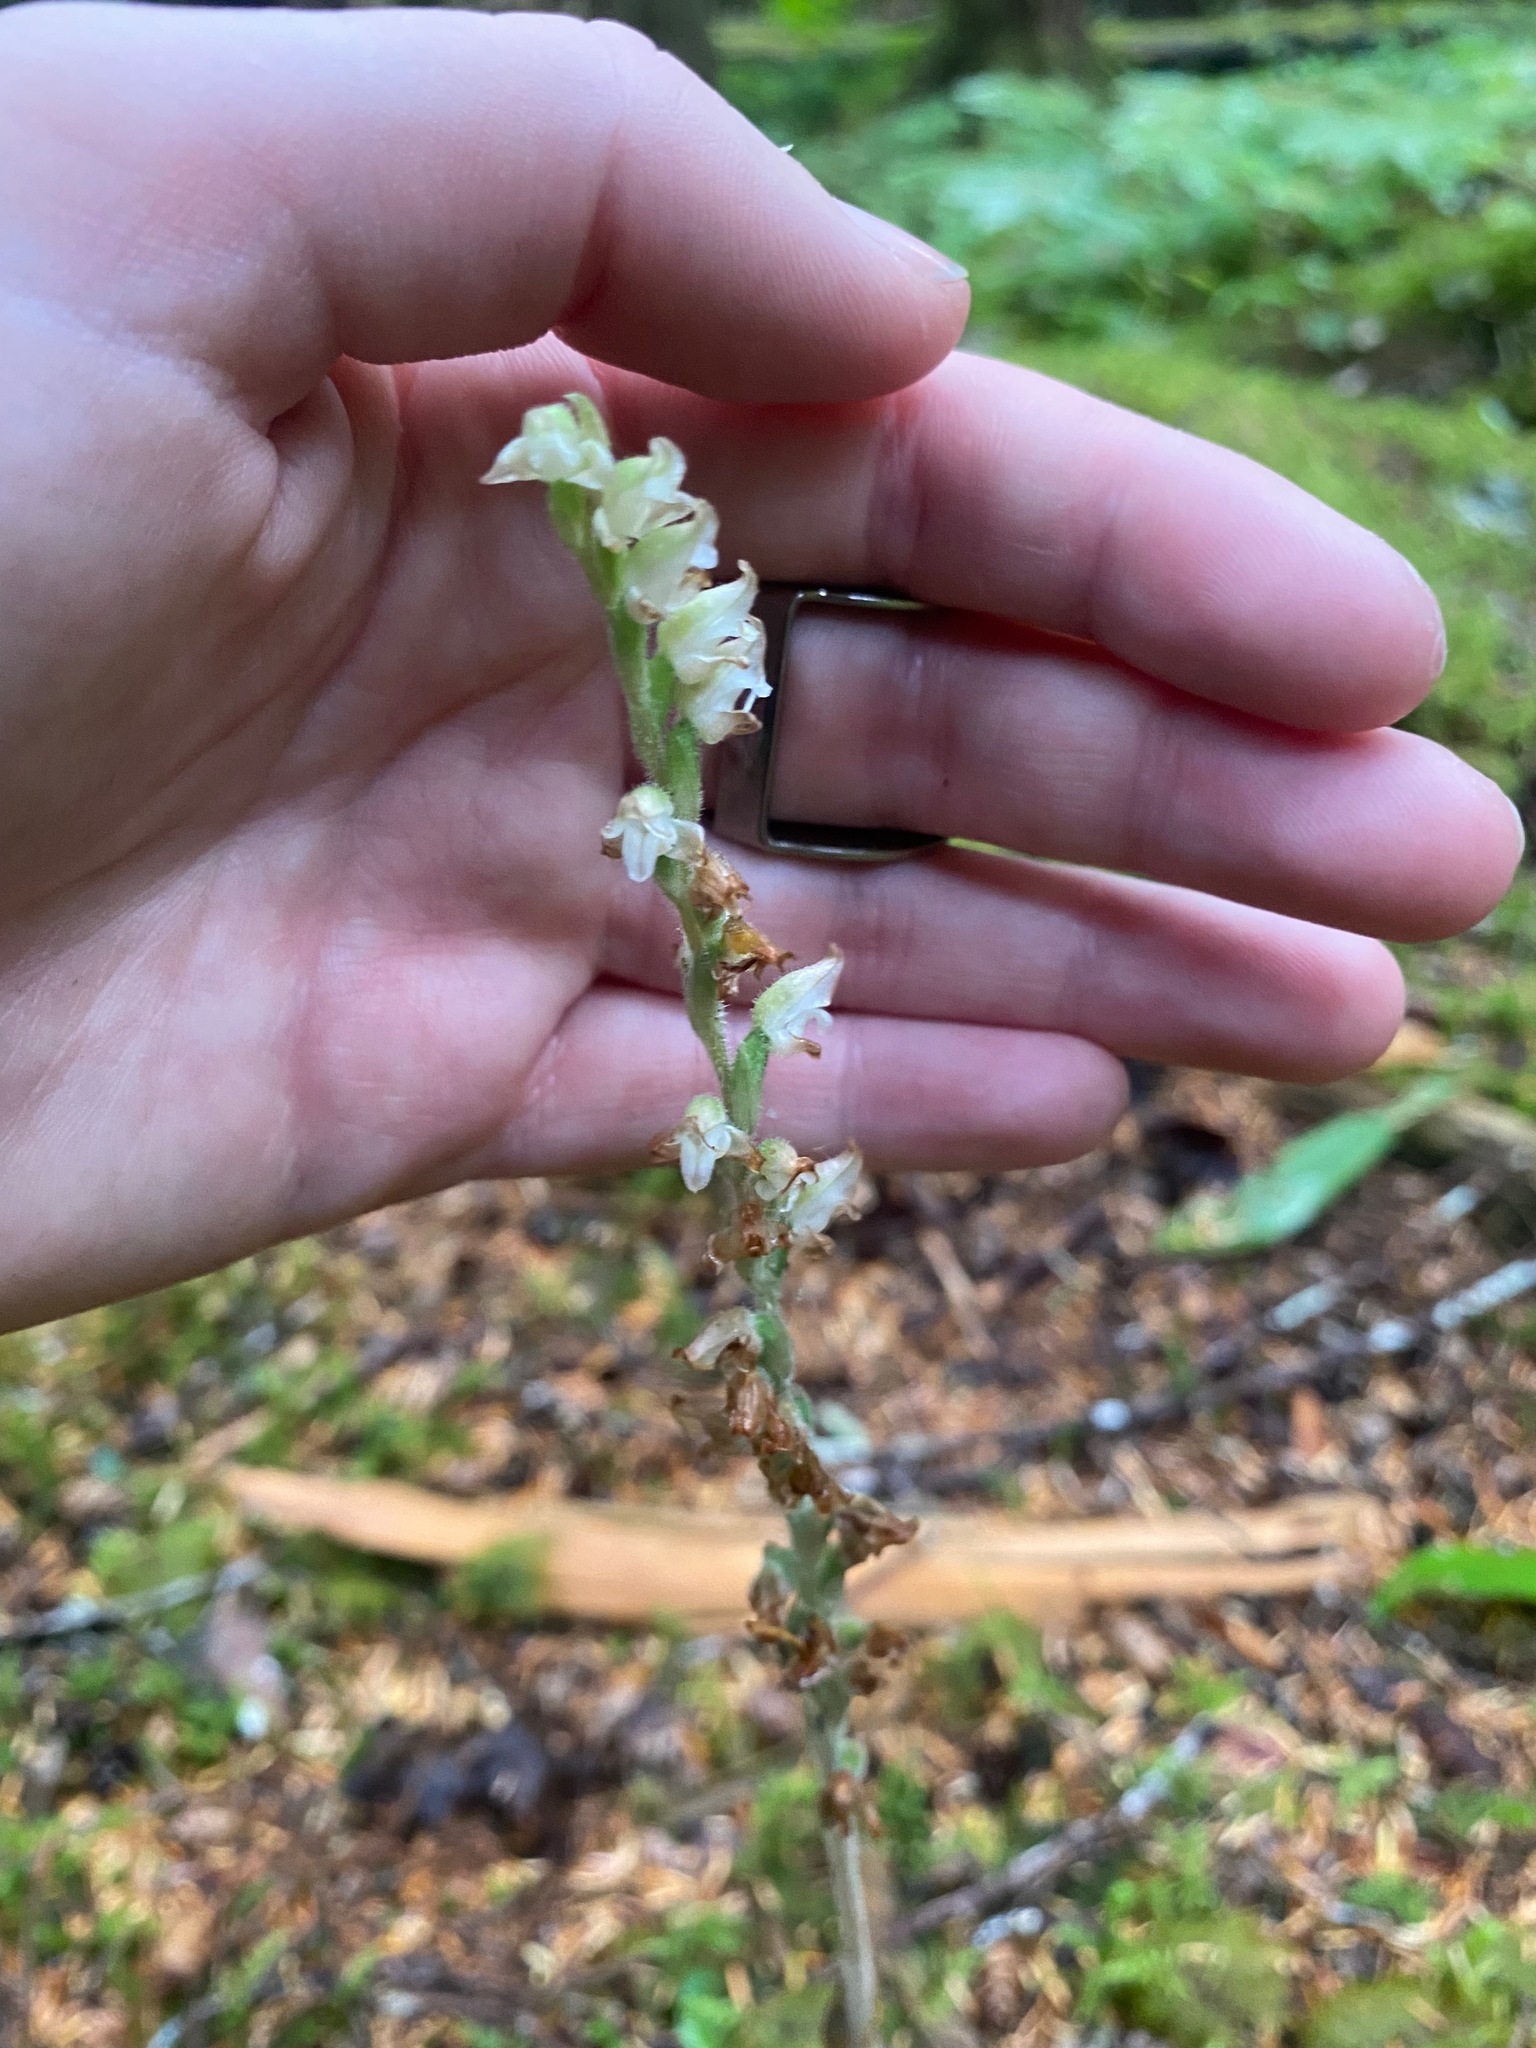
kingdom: Plantae
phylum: Tracheophyta
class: Liliopsida
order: Asparagales
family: Orchidaceae
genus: Goodyera
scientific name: Goodyera oblongifolia
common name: Giant rattlesnake-plantain
